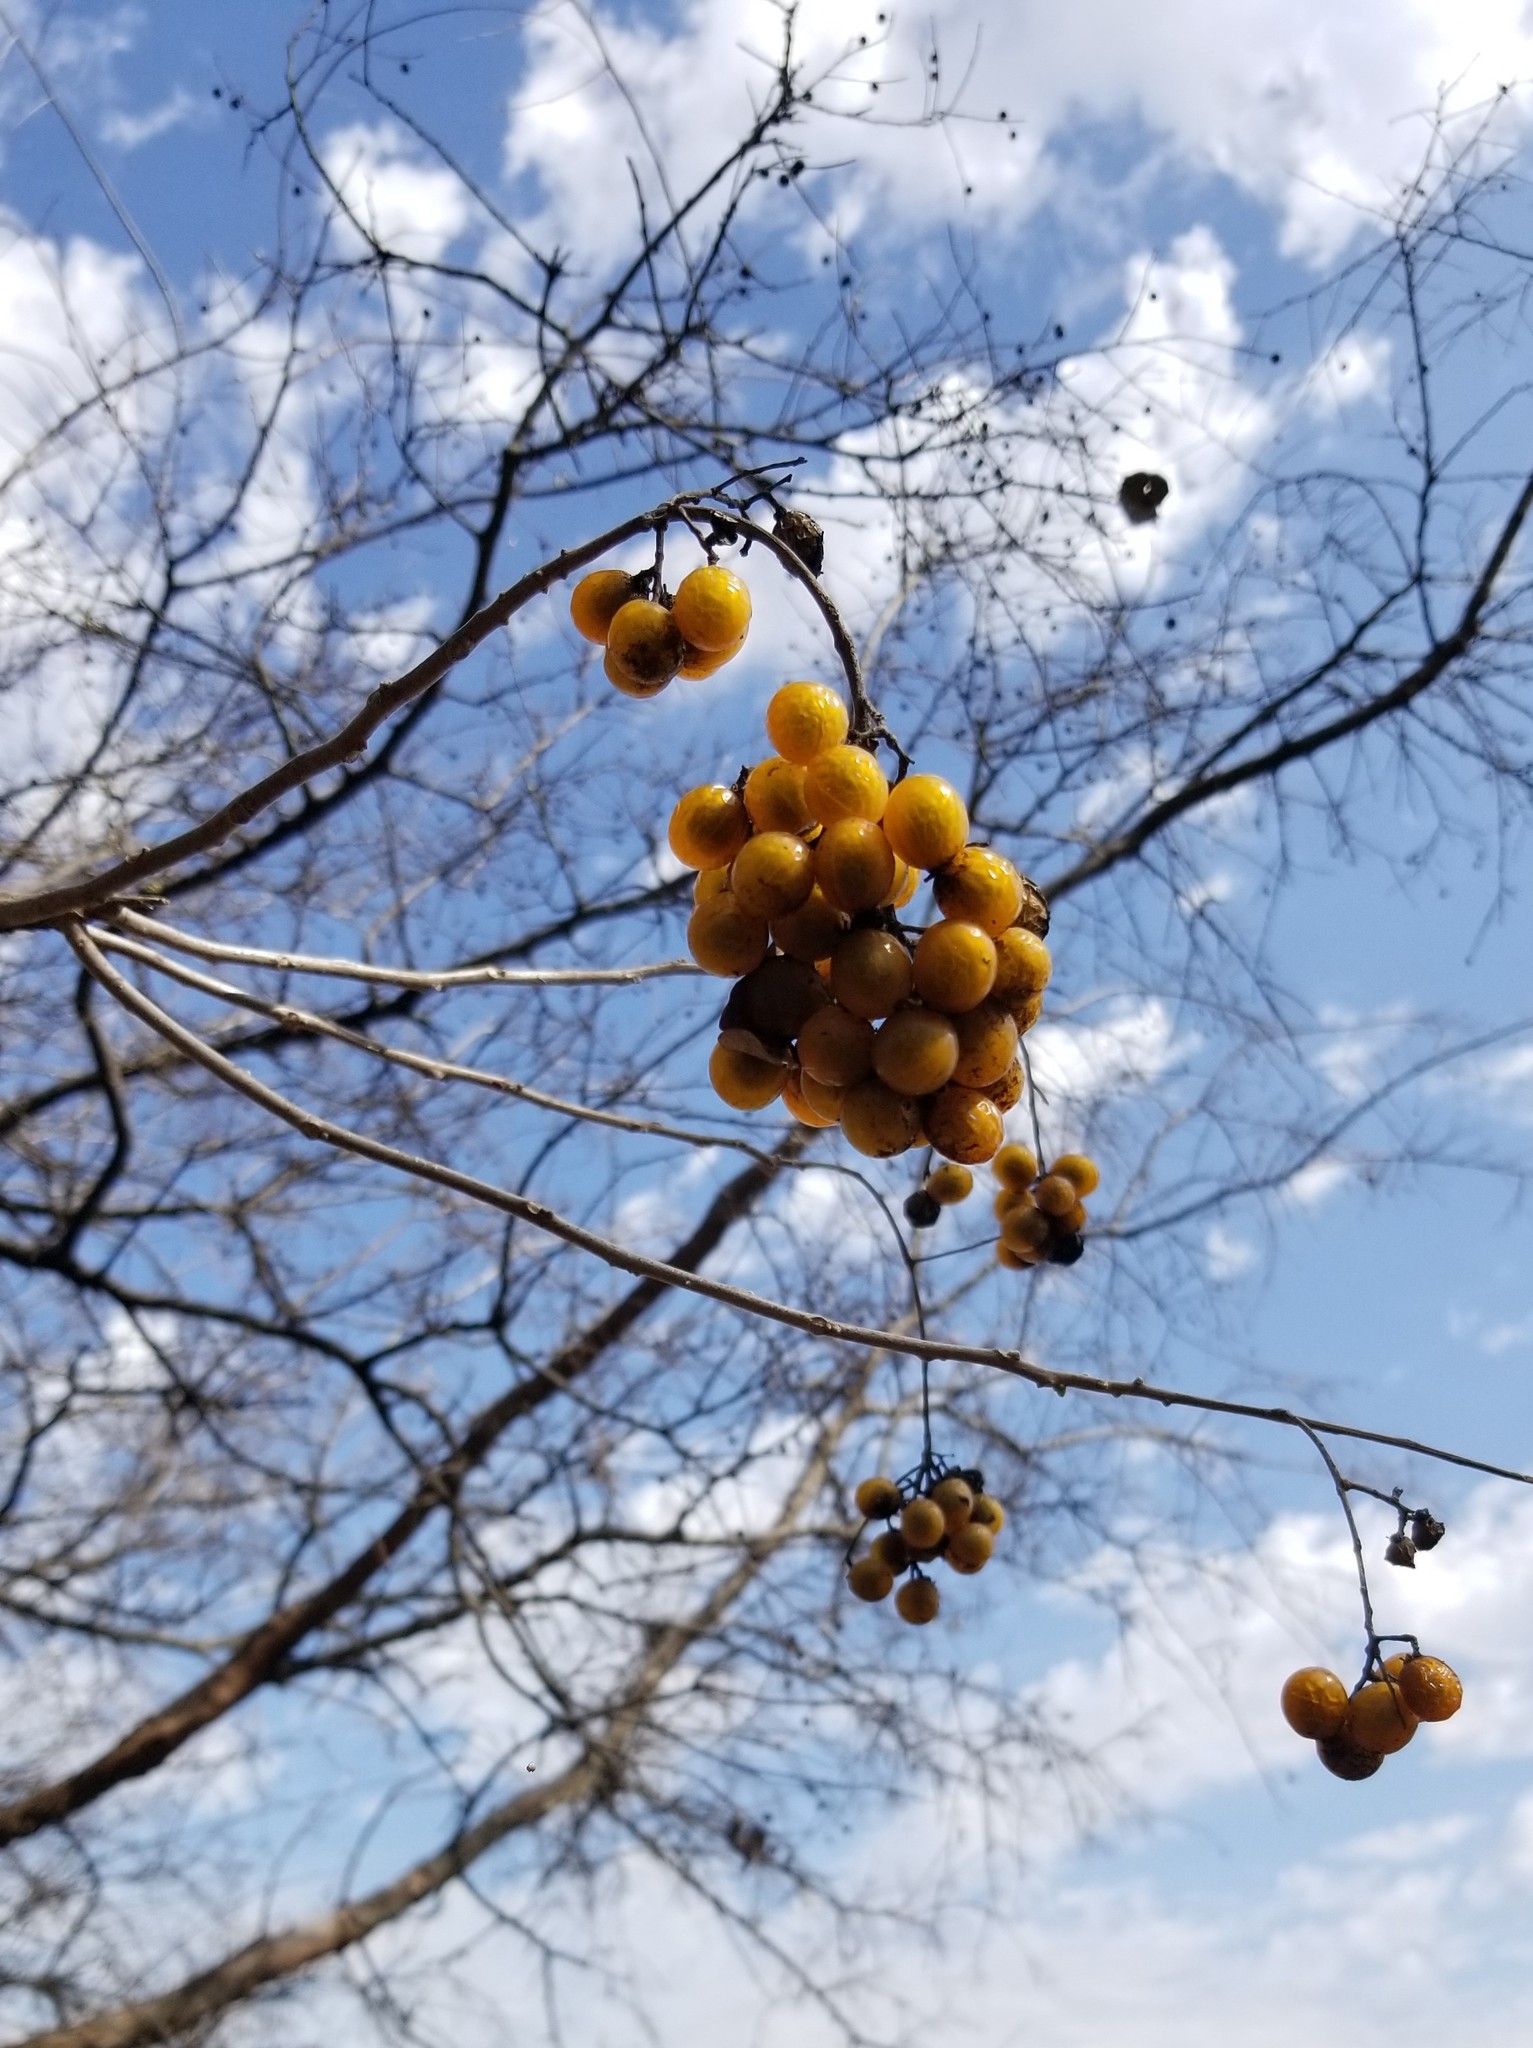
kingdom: Plantae
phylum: Tracheophyta
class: Magnoliopsida
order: Sapindales
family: Sapindaceae
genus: Sapindus
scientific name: Sapindus drummondii
